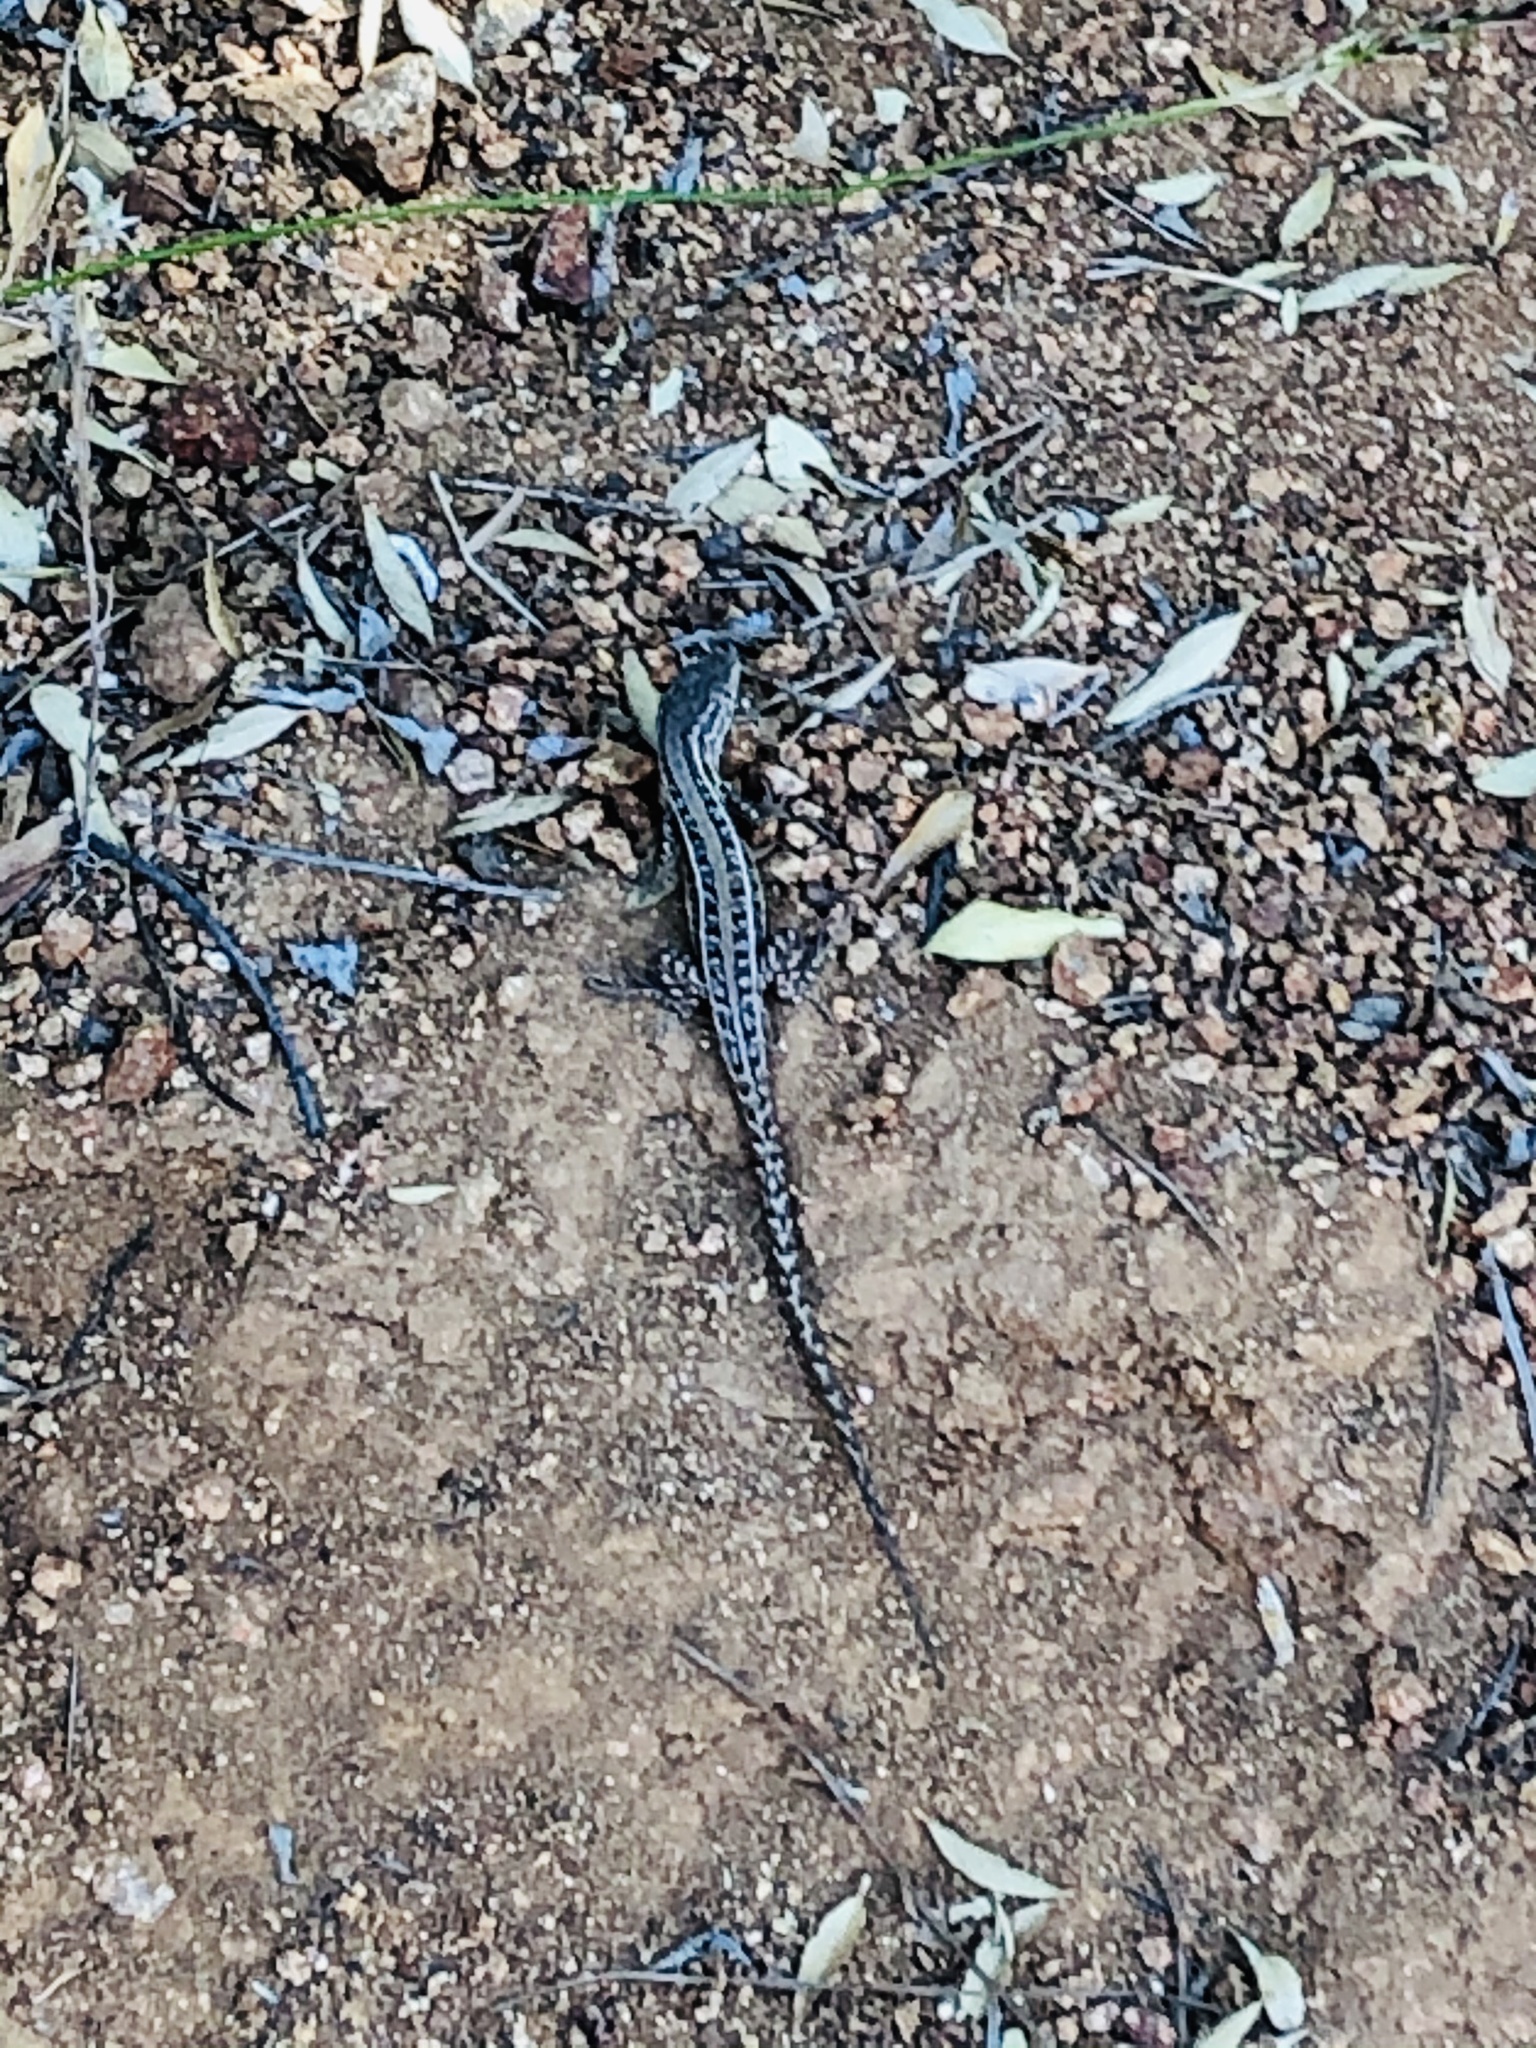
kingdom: Animalia
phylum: Chordata
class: Squamata
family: Liolaemidae
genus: Liolaemus
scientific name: Liolaemus lemniscatus
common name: Wreath tree iguana
